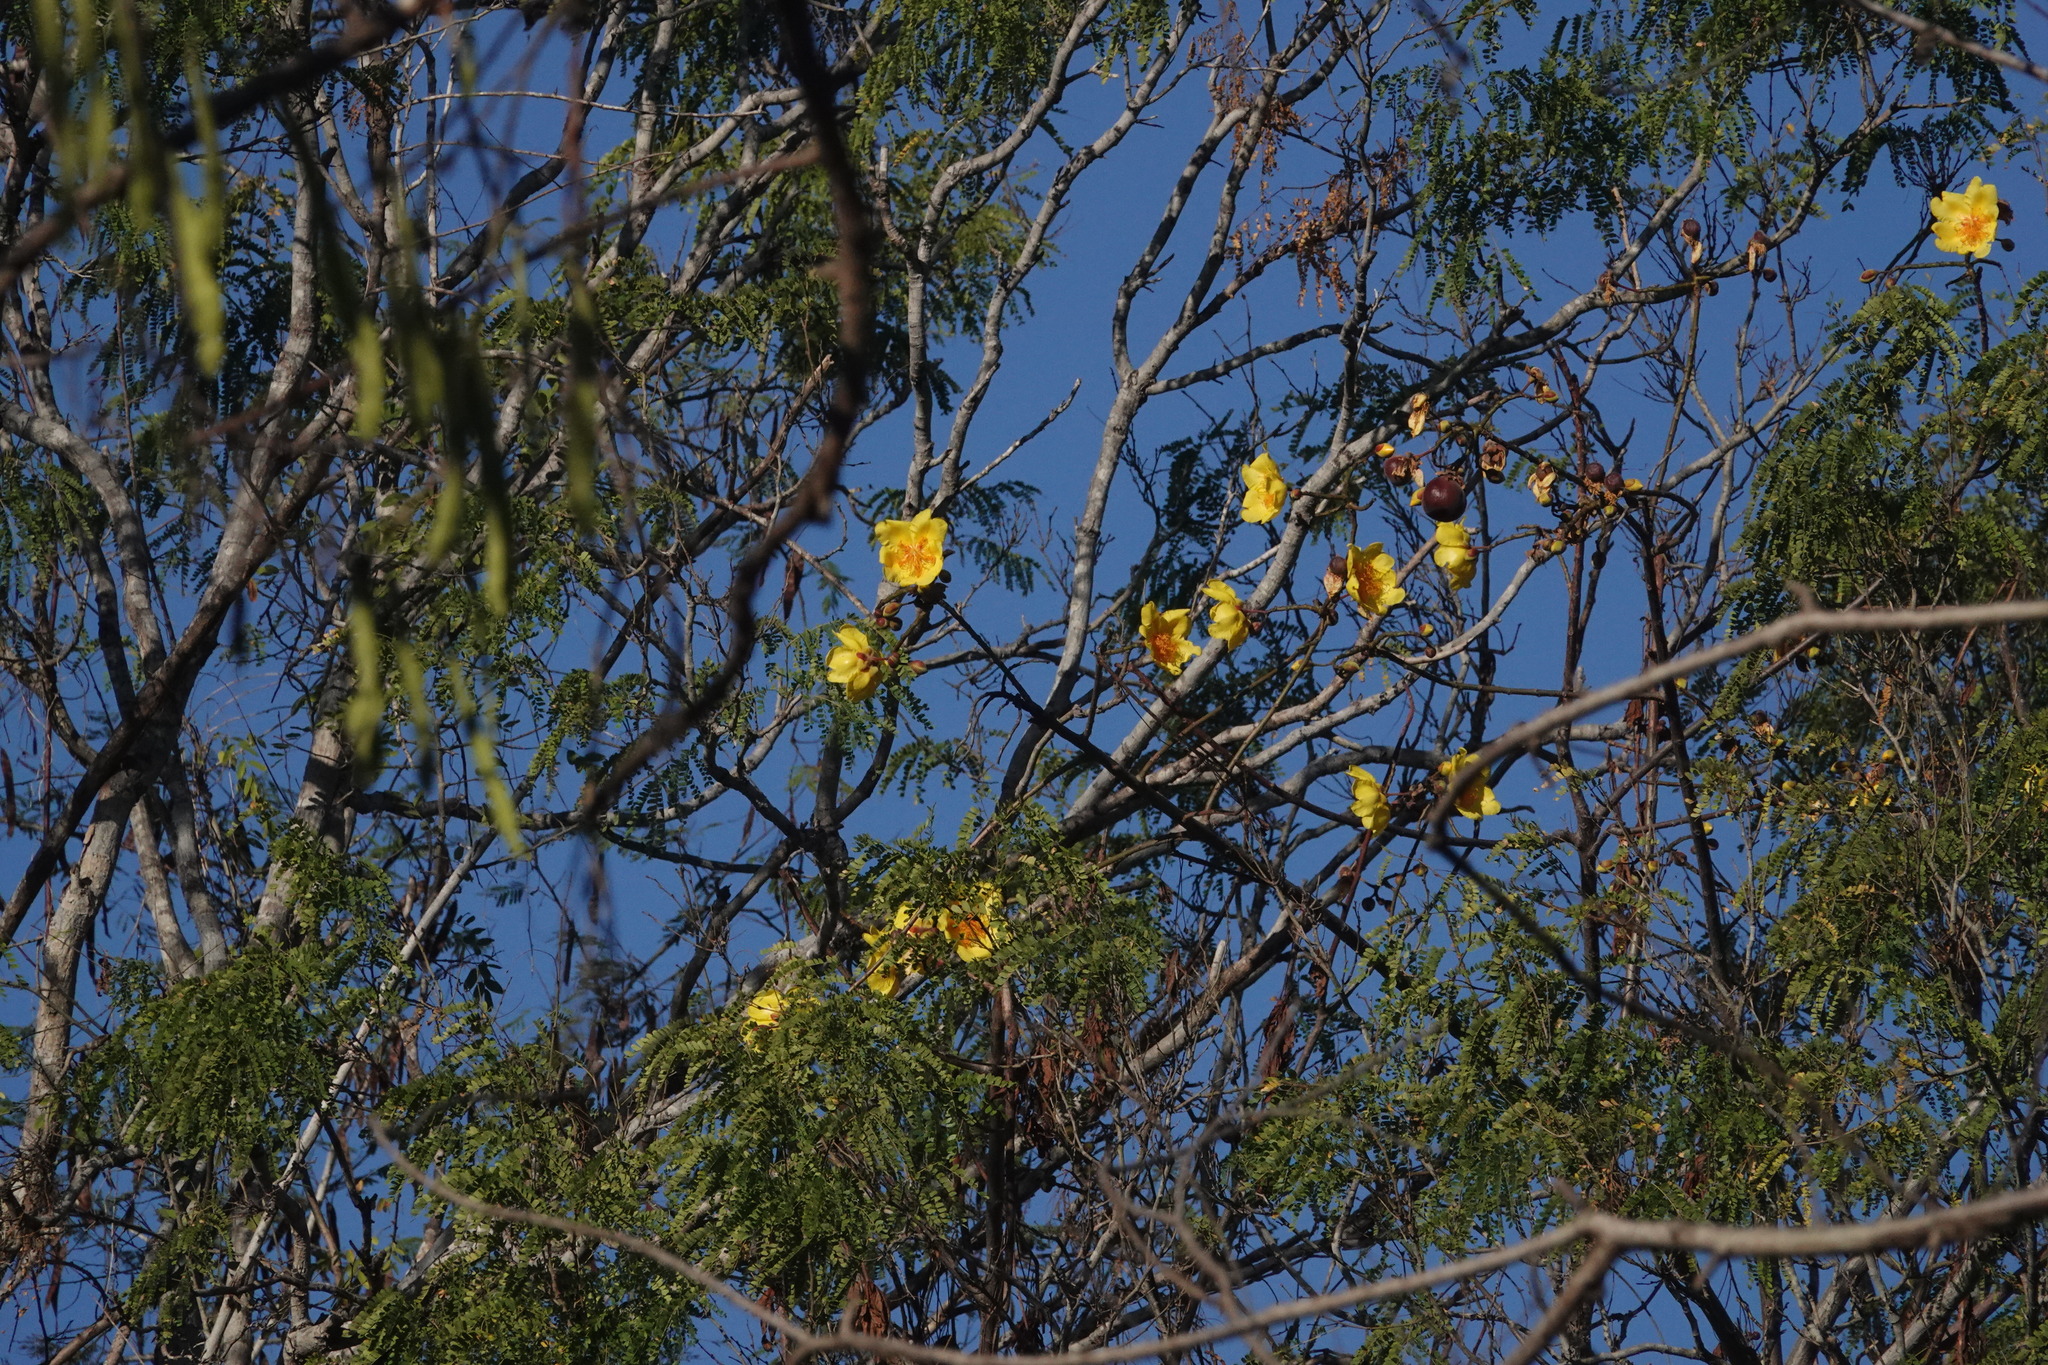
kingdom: Plantae
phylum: Tracheophyta
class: Magnoliopsida
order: Malvales
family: Cochlospermaceae
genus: Cochlospermum
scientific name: Cochlospermum vitifolium
